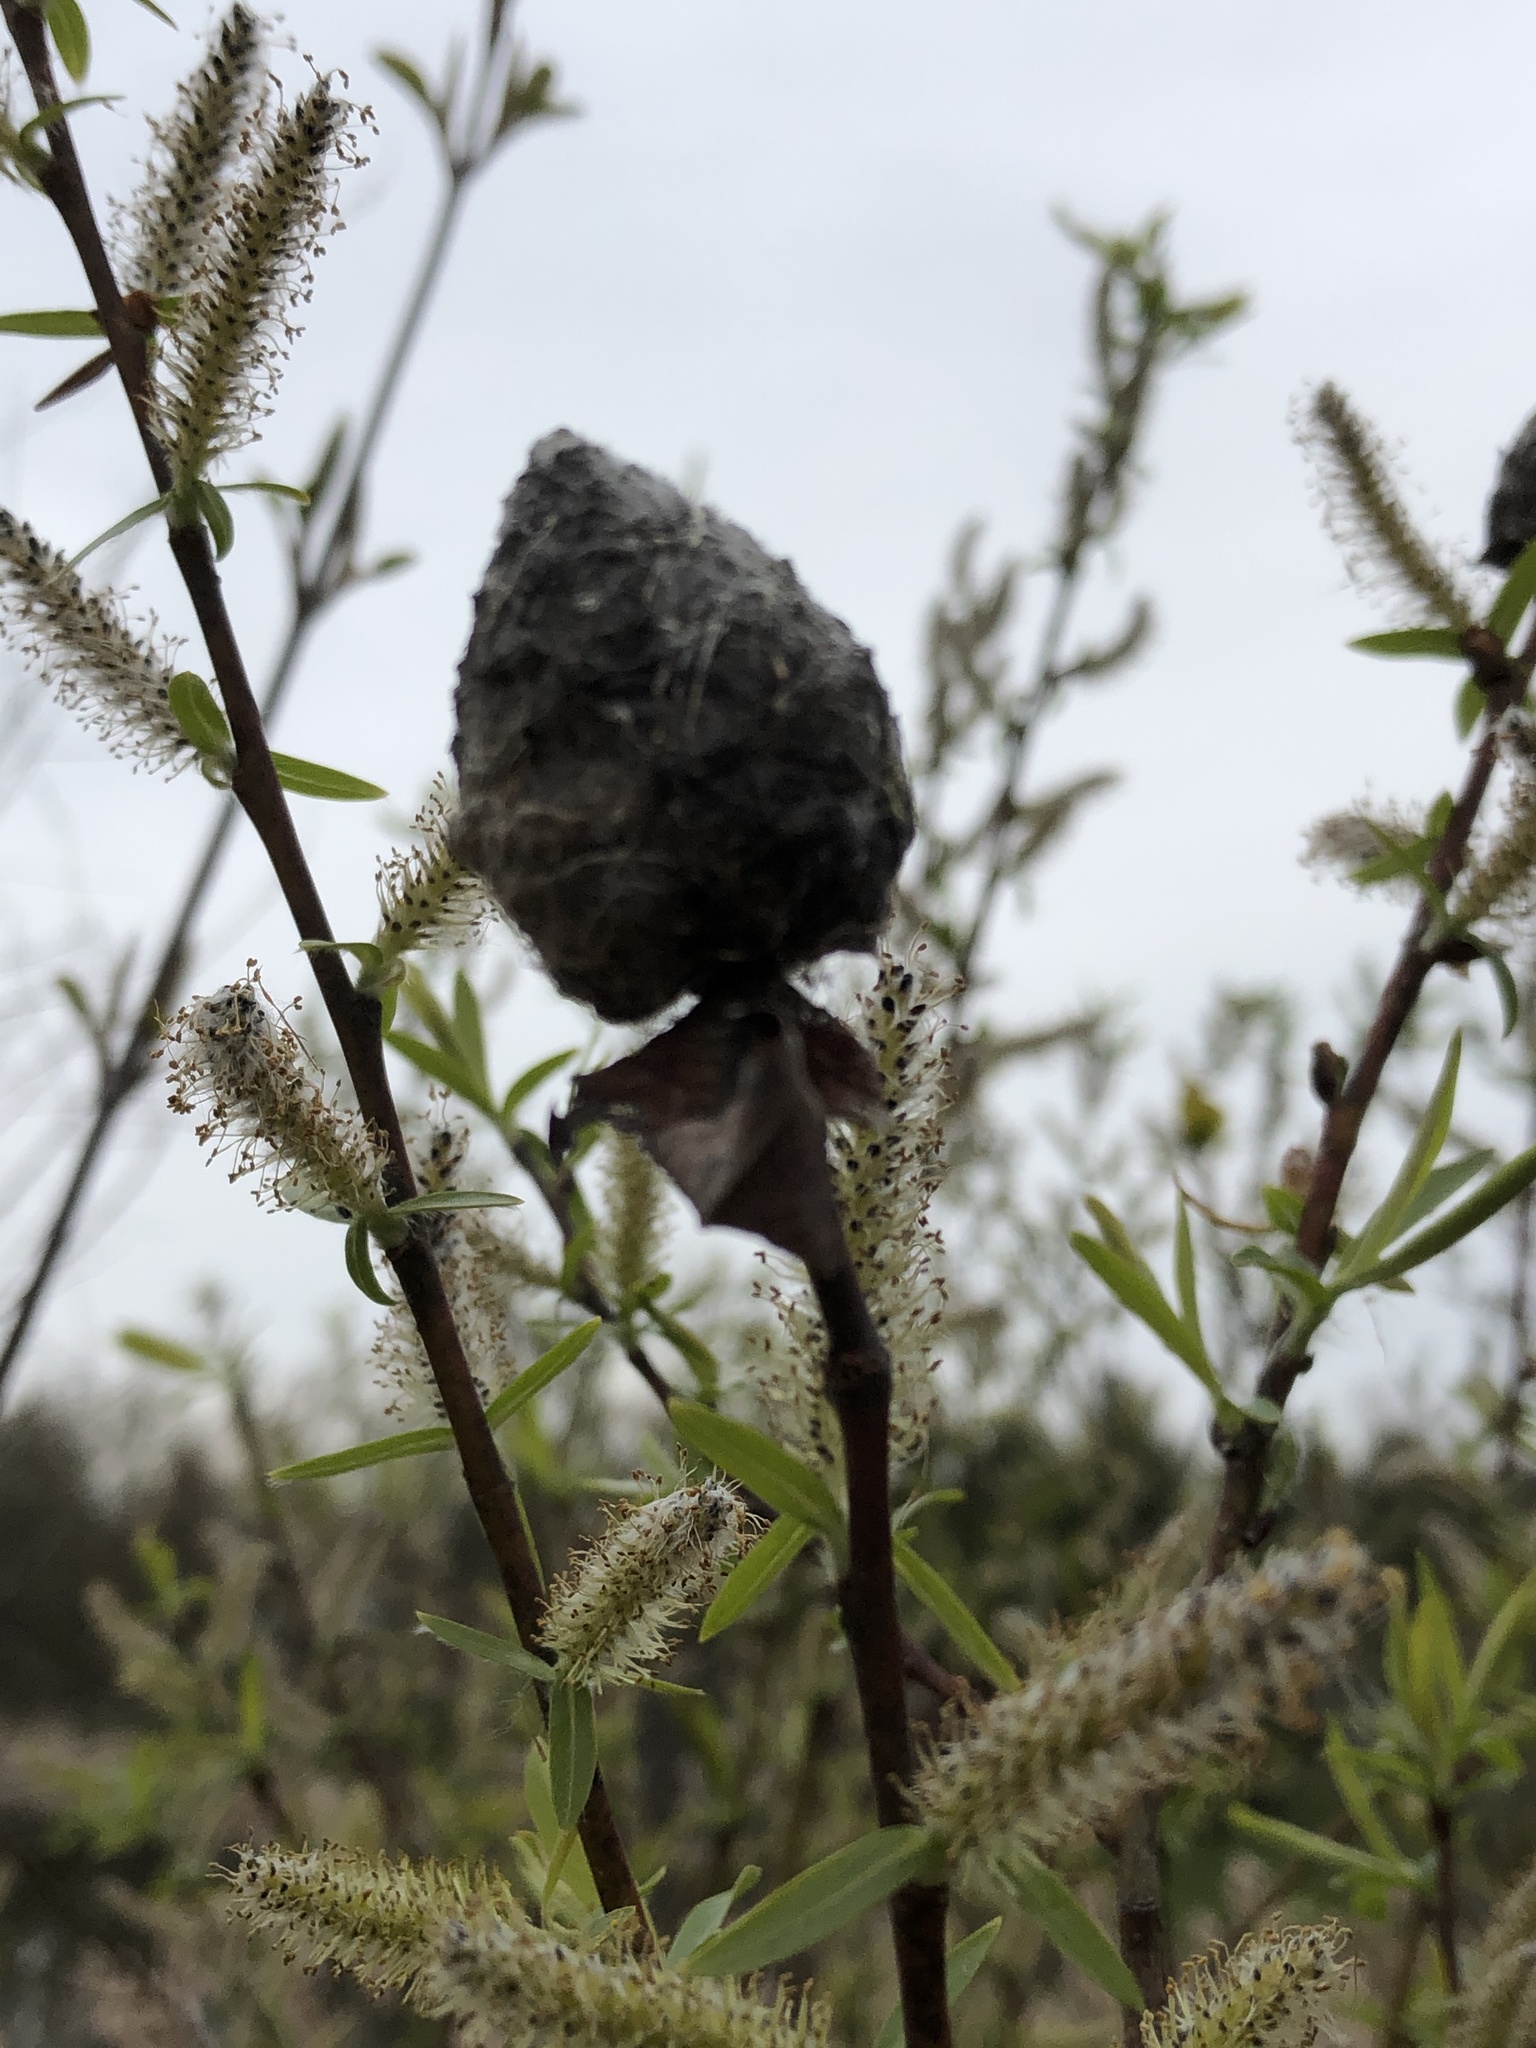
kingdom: Animalia
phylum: Arthropoda
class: Insecta
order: Diptera
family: Cecidomyiidae
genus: Rabdophaga
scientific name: Rabdophaga strobiloides
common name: Willow pinecone gall midge
